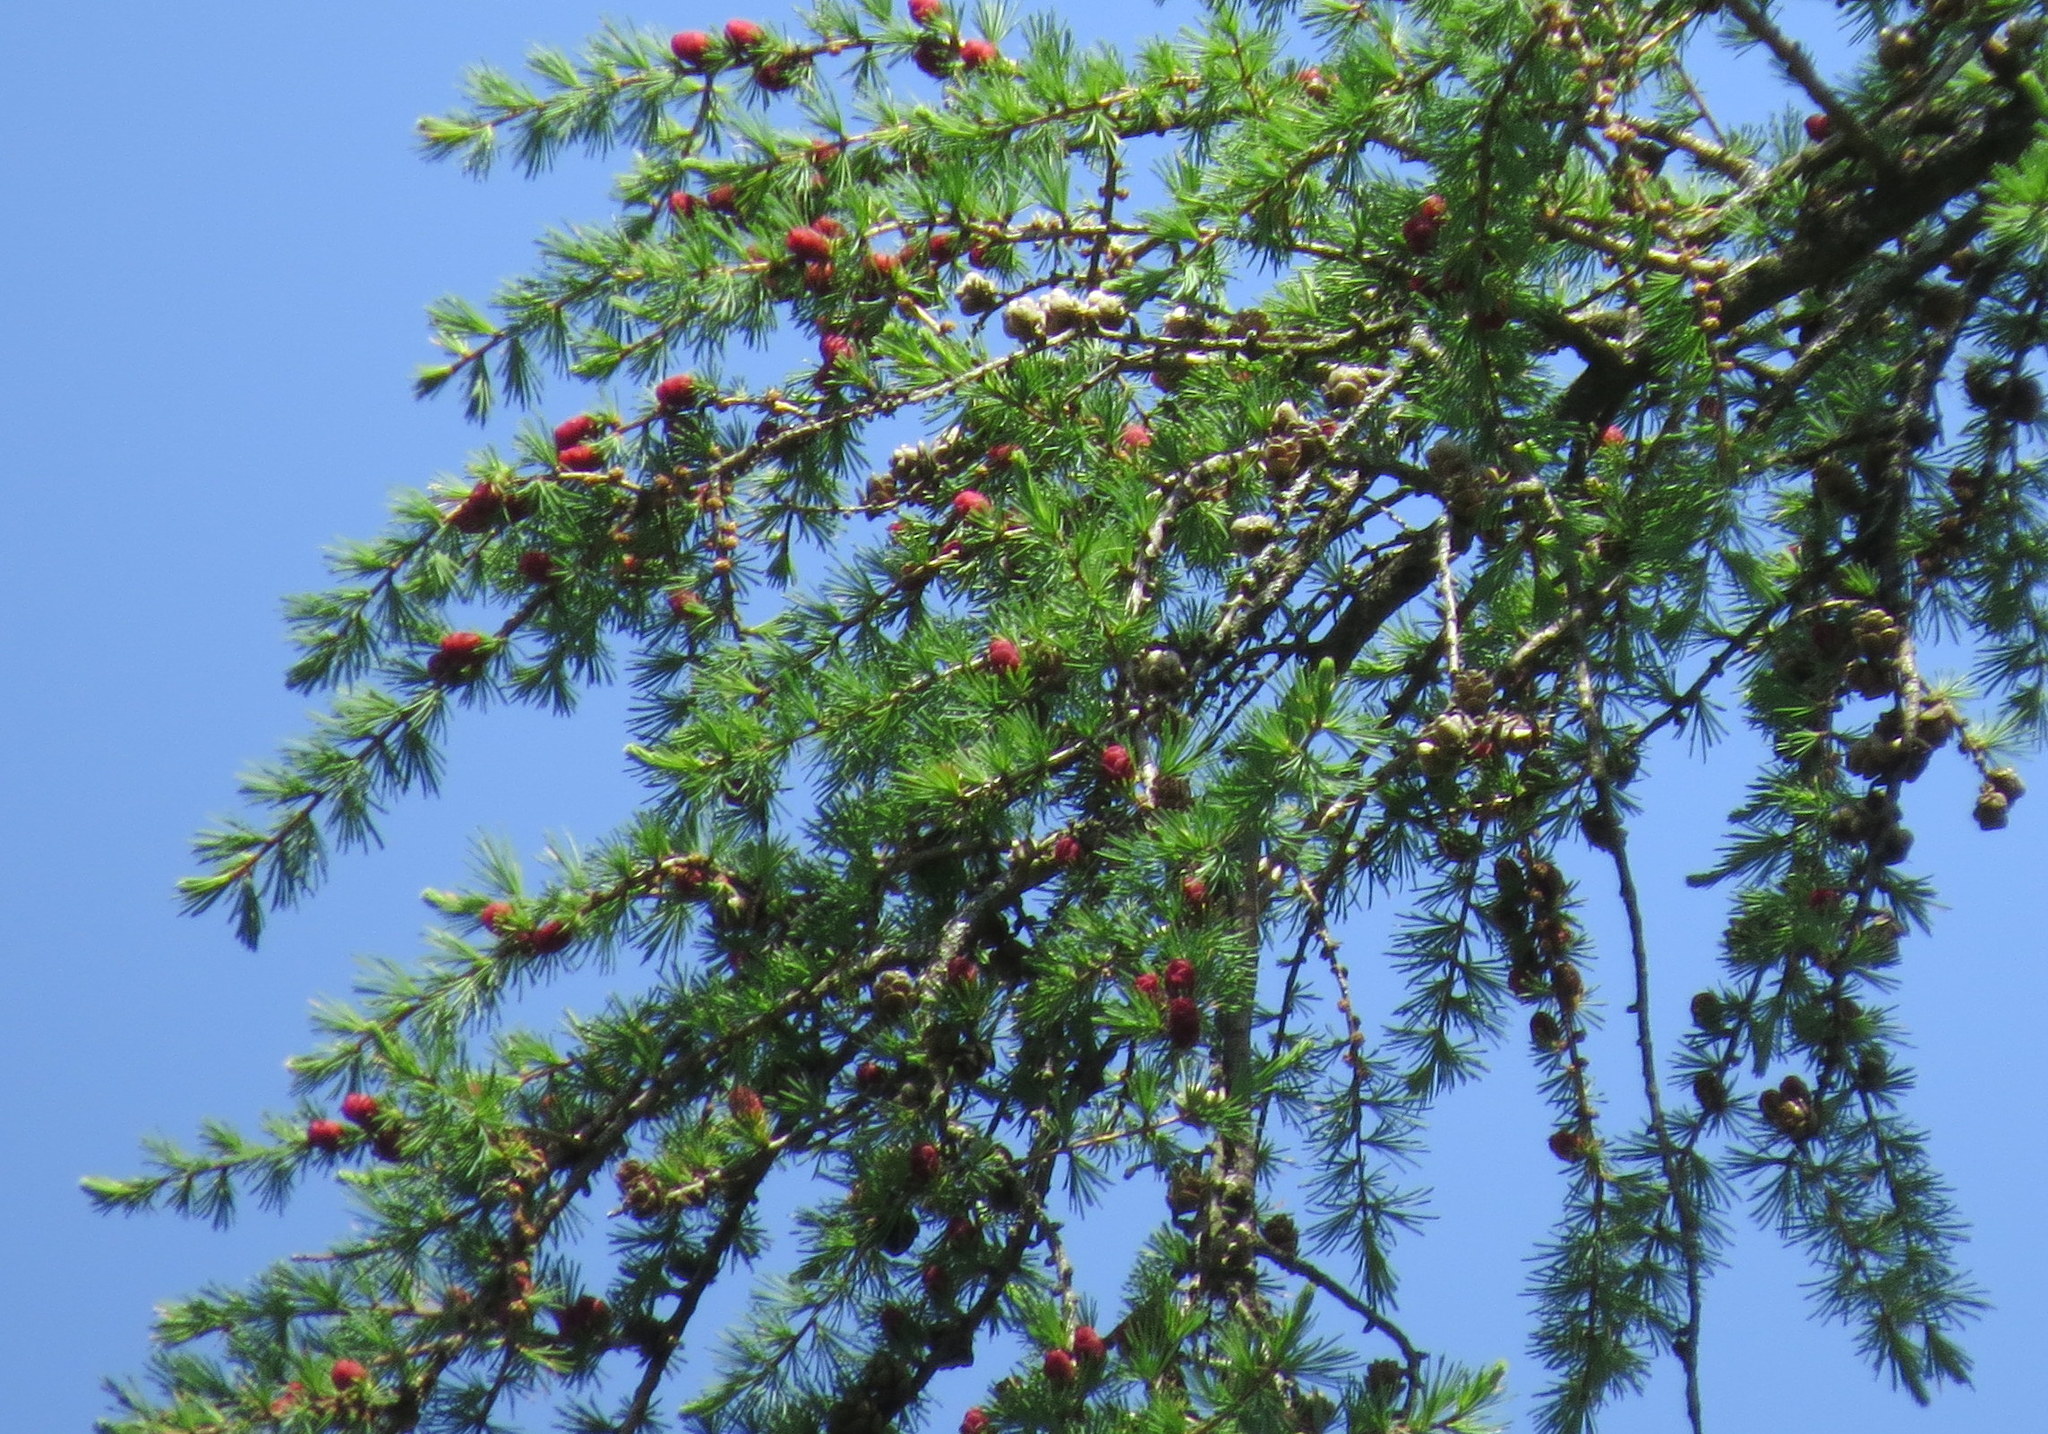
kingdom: Plantae
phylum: Tracheophyta
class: Pinopsida
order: Pinales
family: Pinaceae
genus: Larix
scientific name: Larix laricina
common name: American larch
